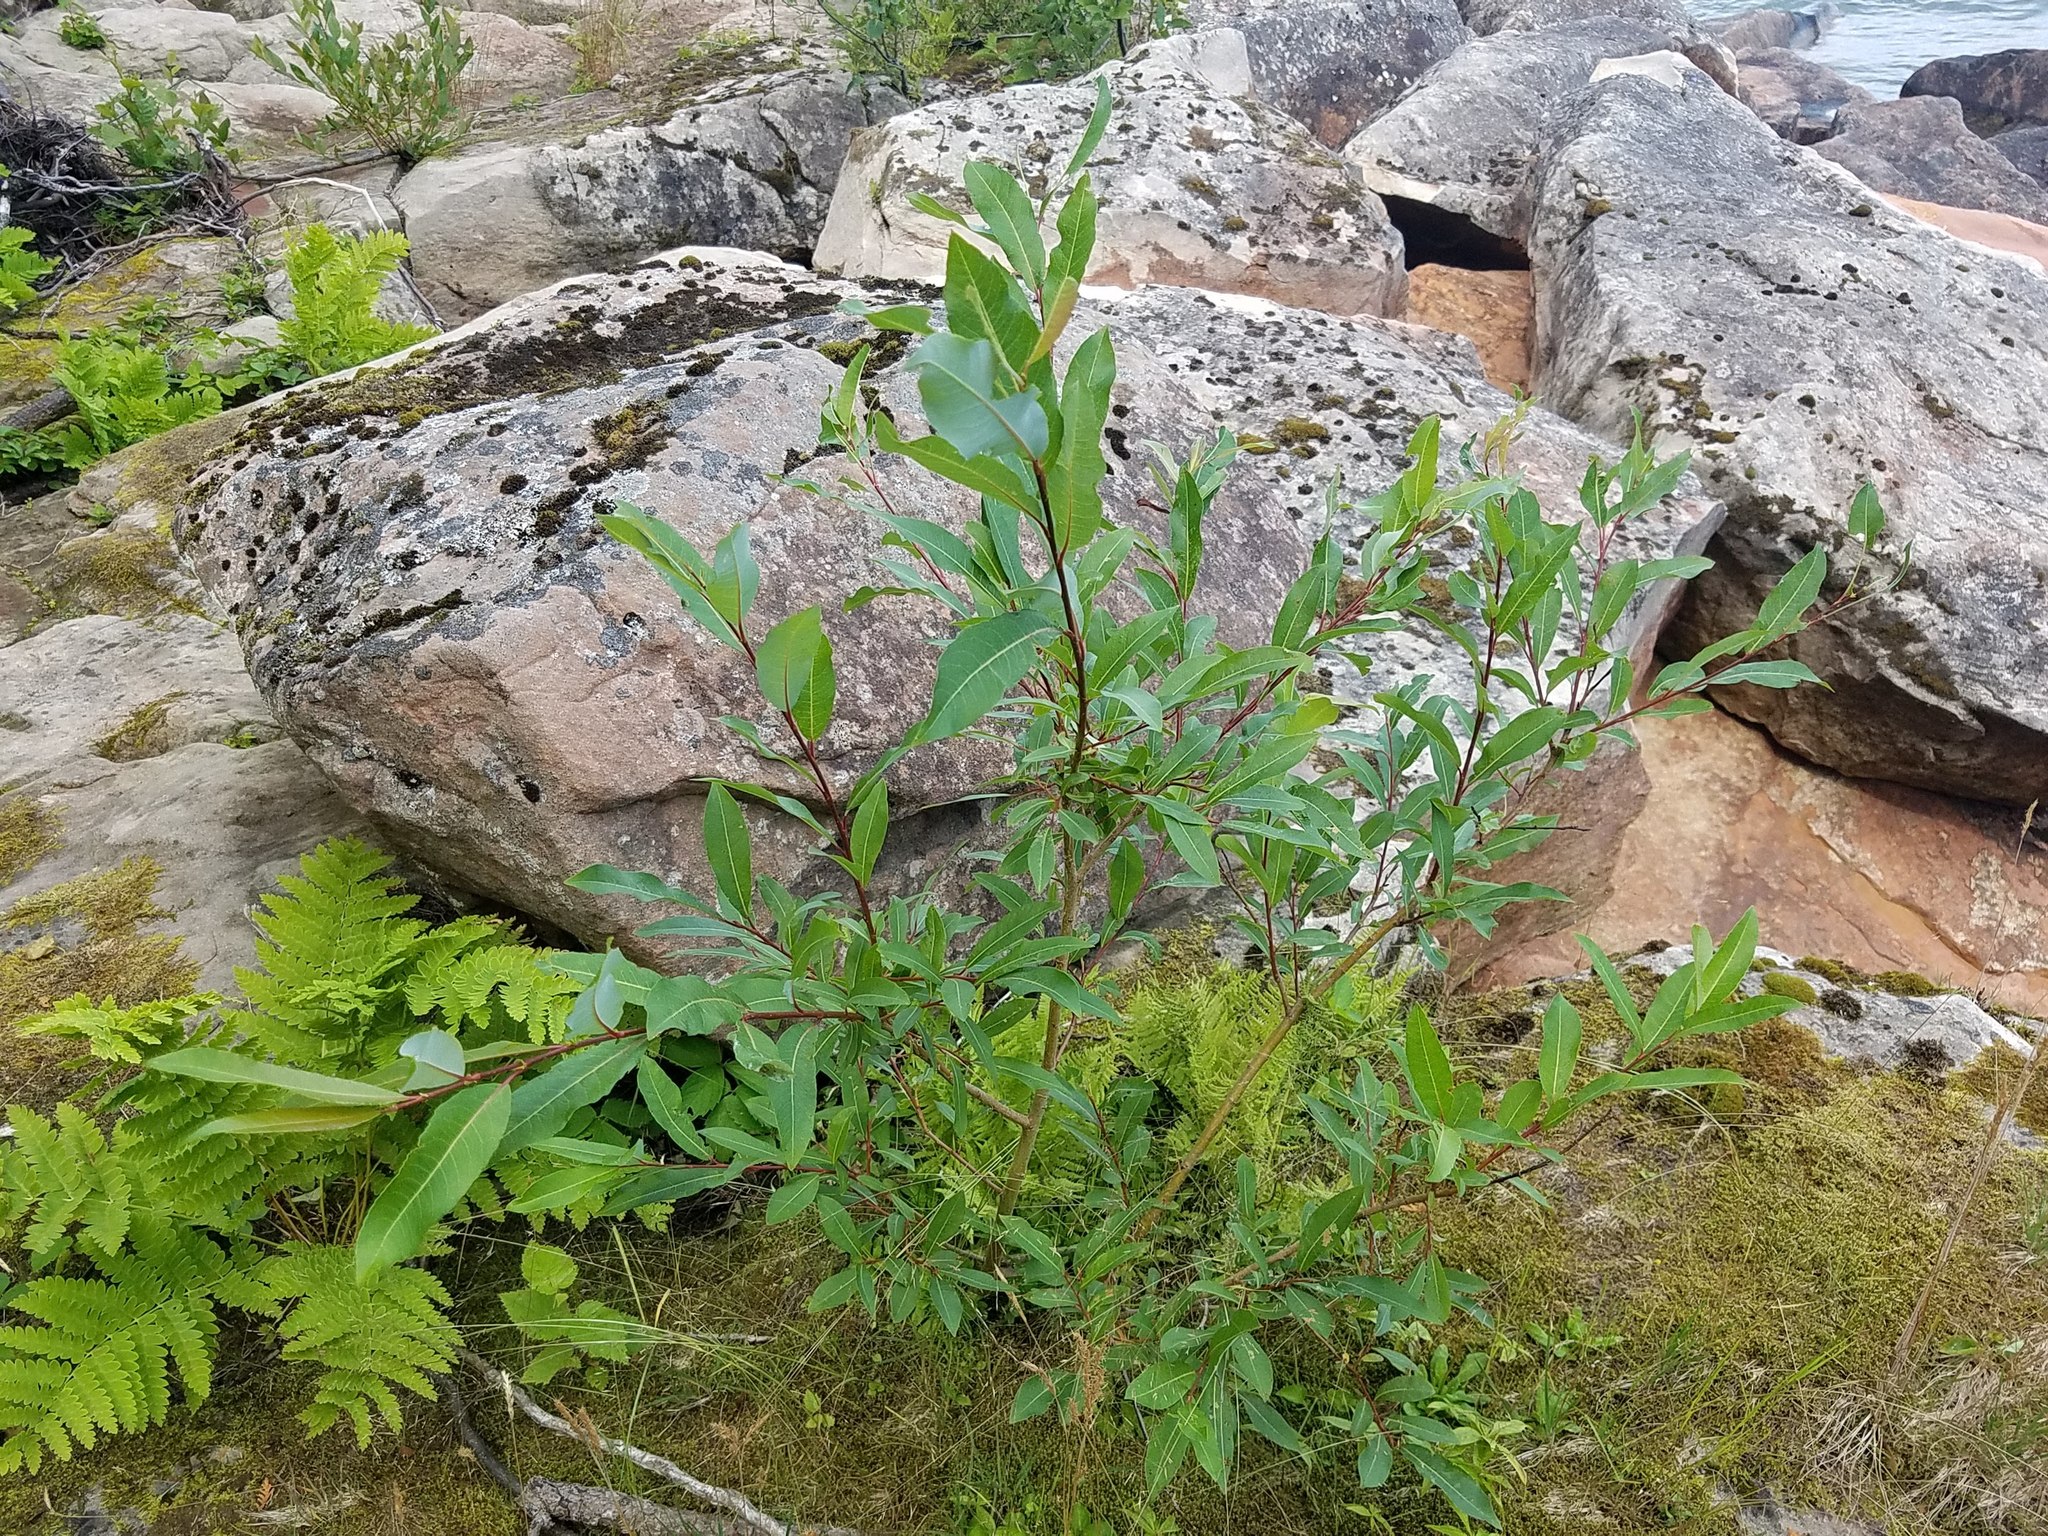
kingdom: Plantae
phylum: Tracheophyta
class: Magnoliopsida
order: Malpighiales
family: Salicaceae
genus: Salix
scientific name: Salix myricoides
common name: Bayberry willow
